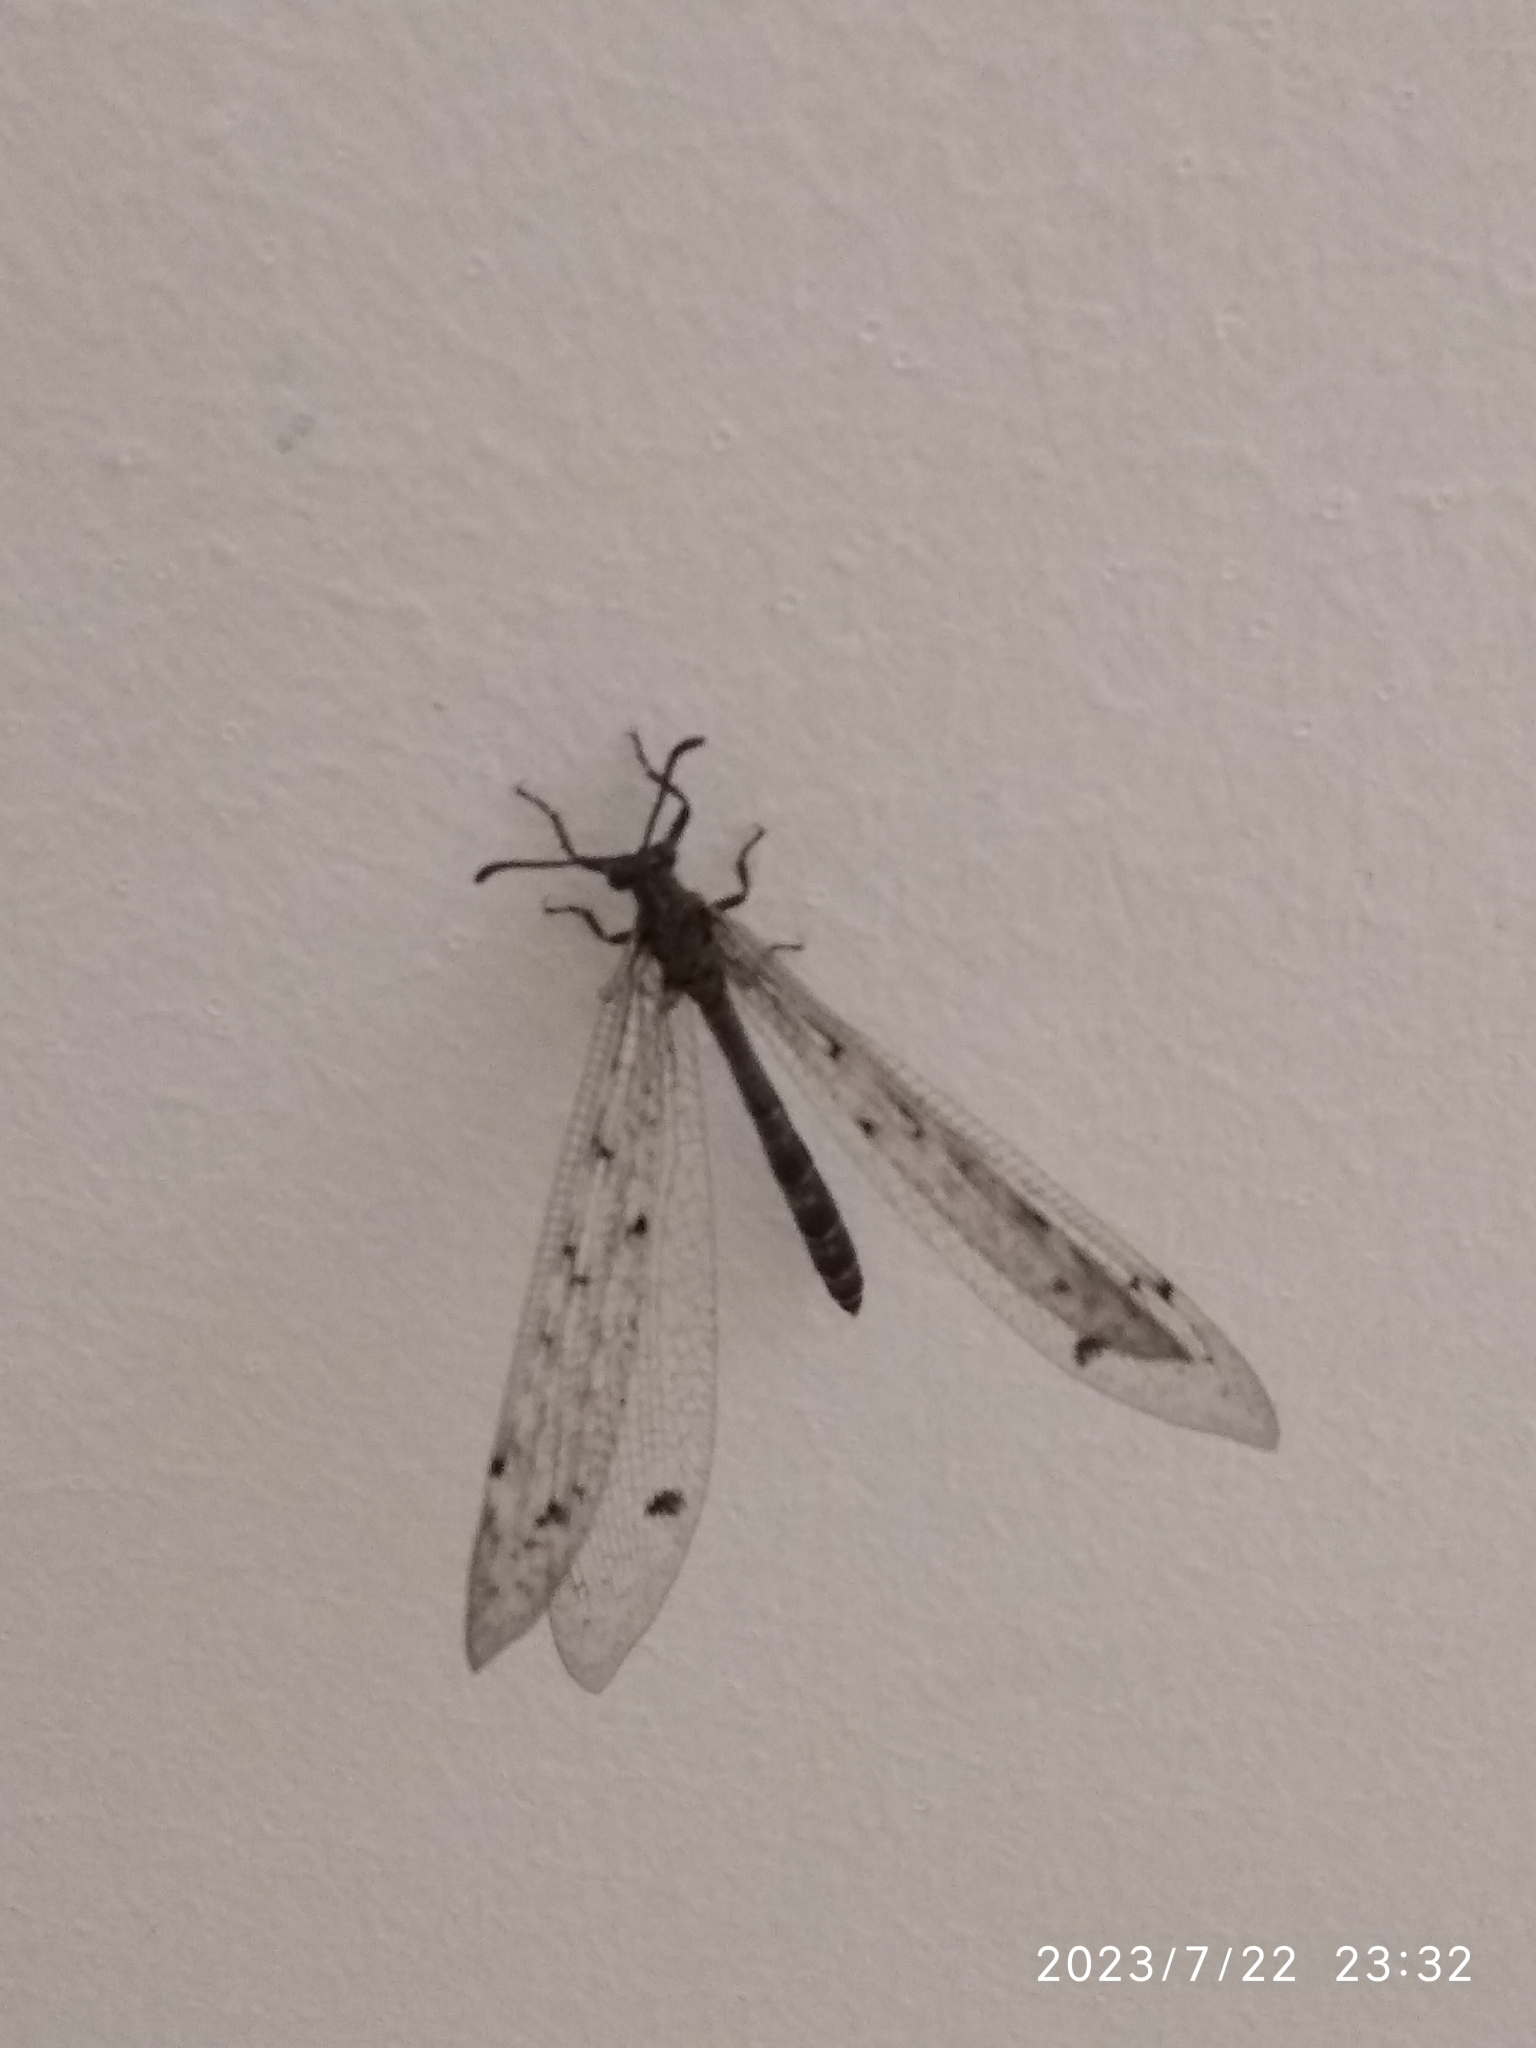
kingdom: Animalia
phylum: Arthropoda
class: Insecta
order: Neuroptera
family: Myrmeleontidae
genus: Distoleon
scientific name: Distoleon tetragrammicus
